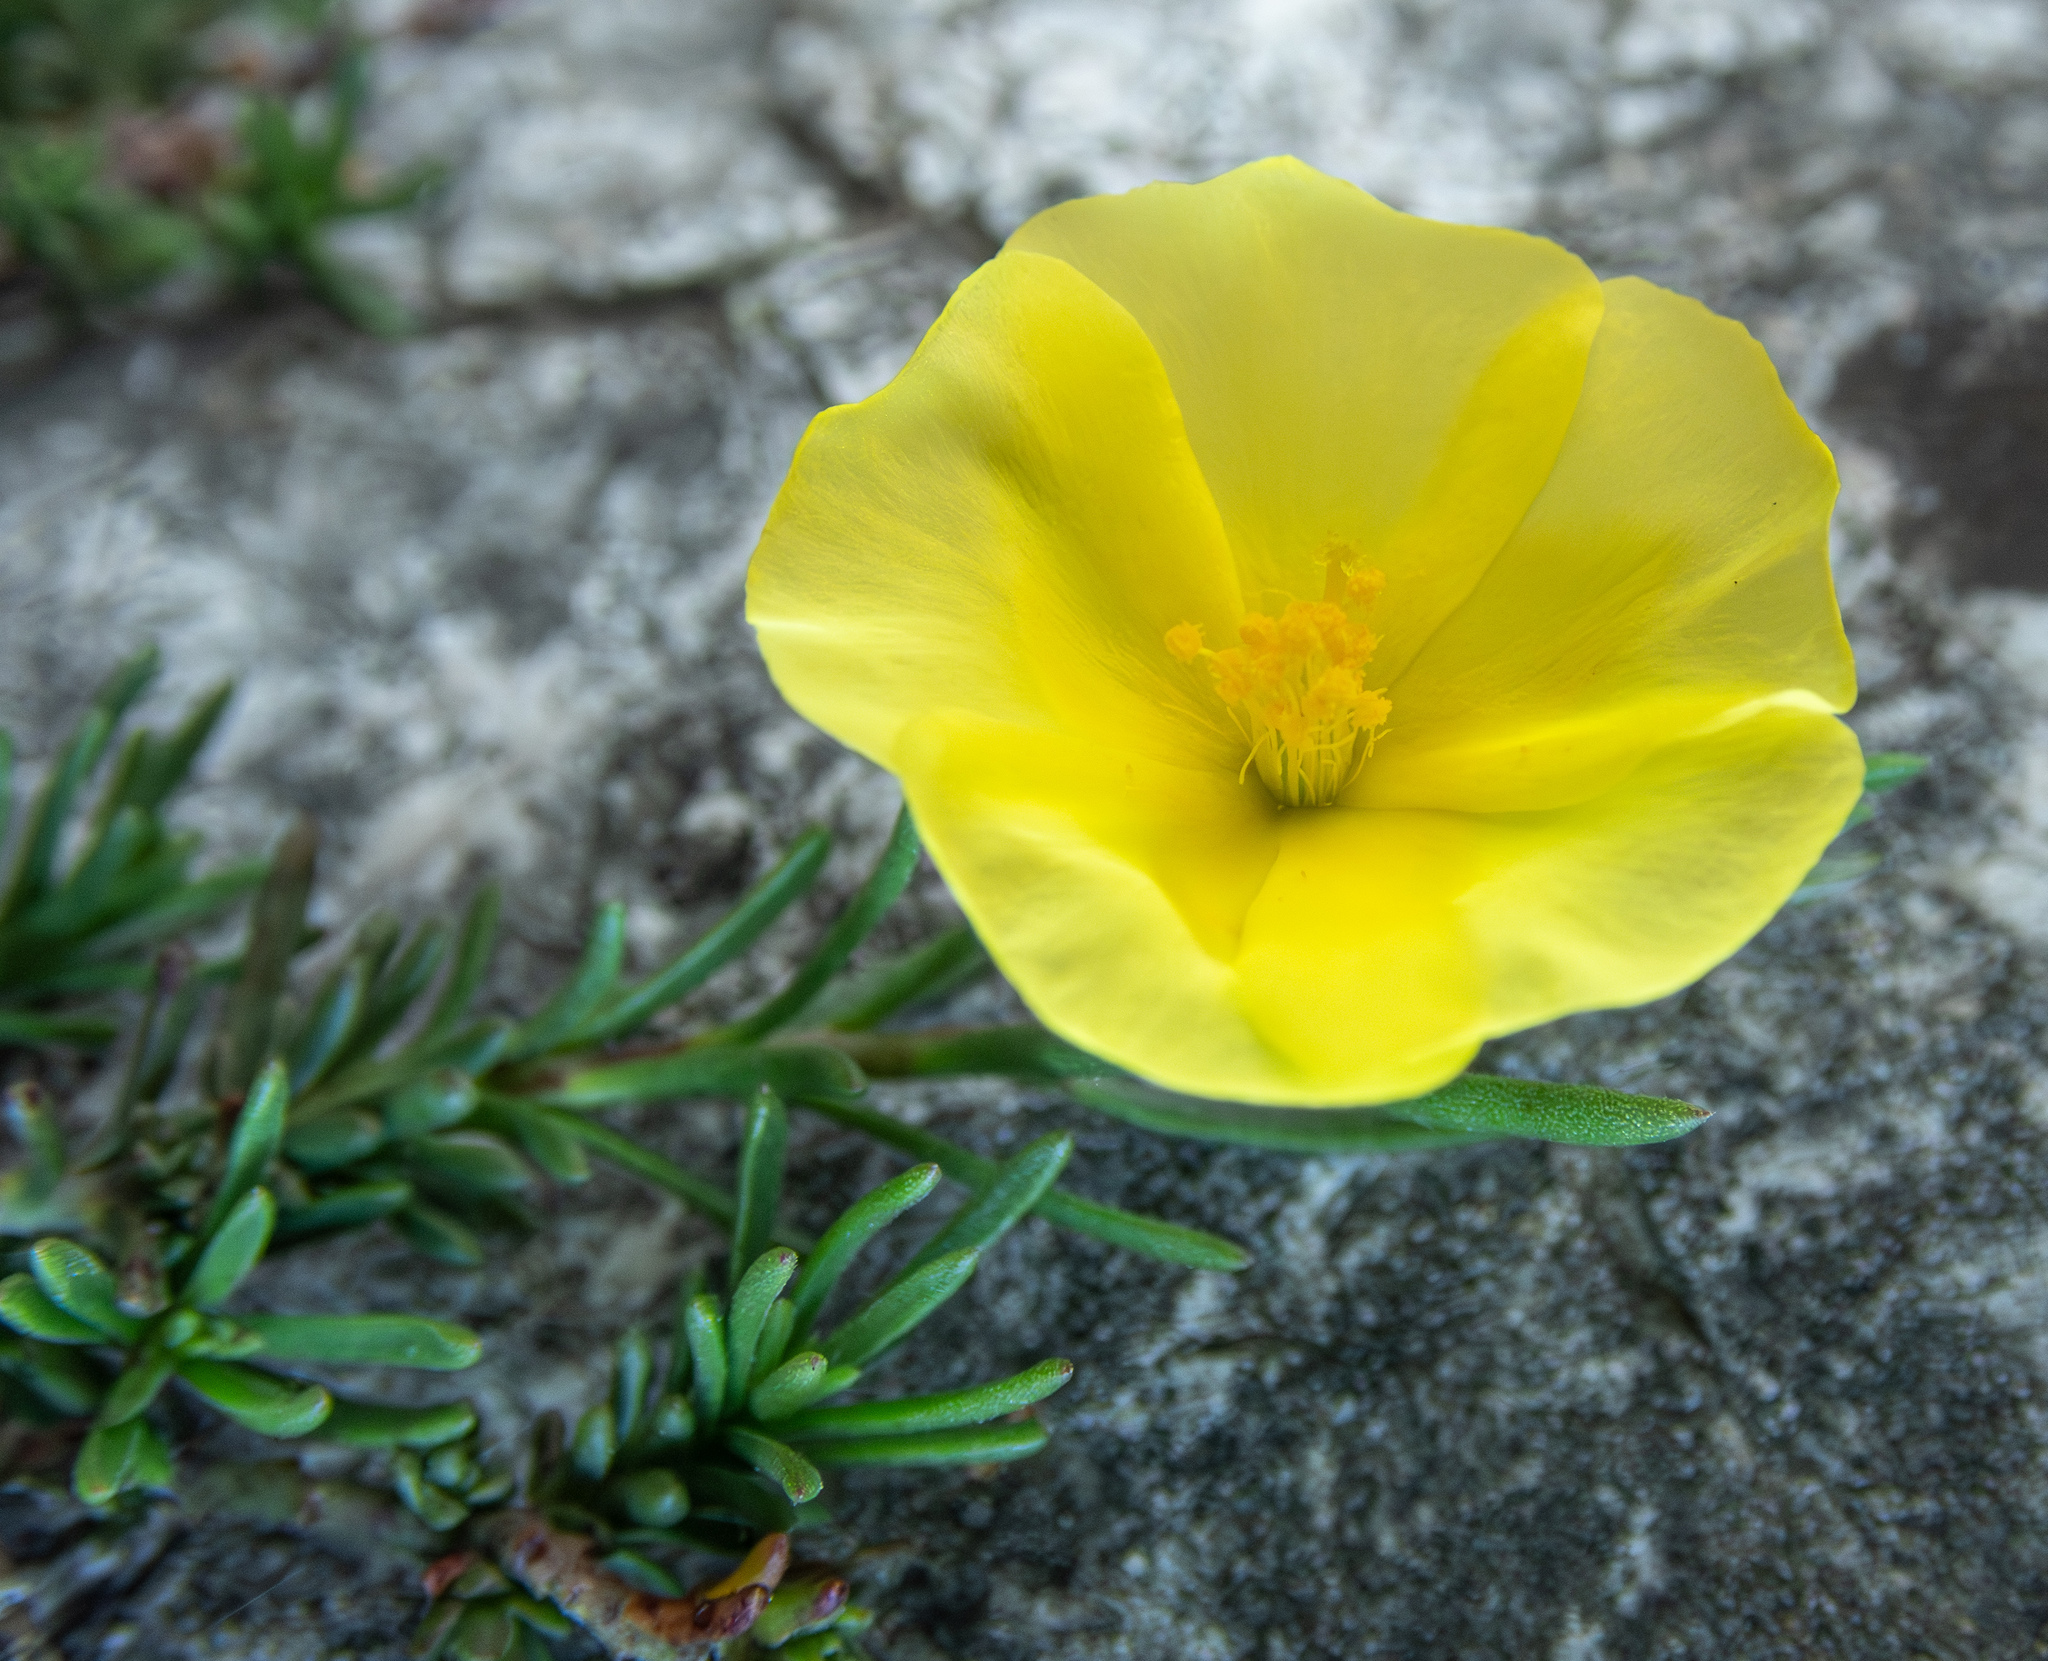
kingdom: Plantae
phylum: Tracheophyta
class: Magnoliopsida
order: Malvales
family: Cistaceae
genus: Fumana
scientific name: Fumana procumbens
